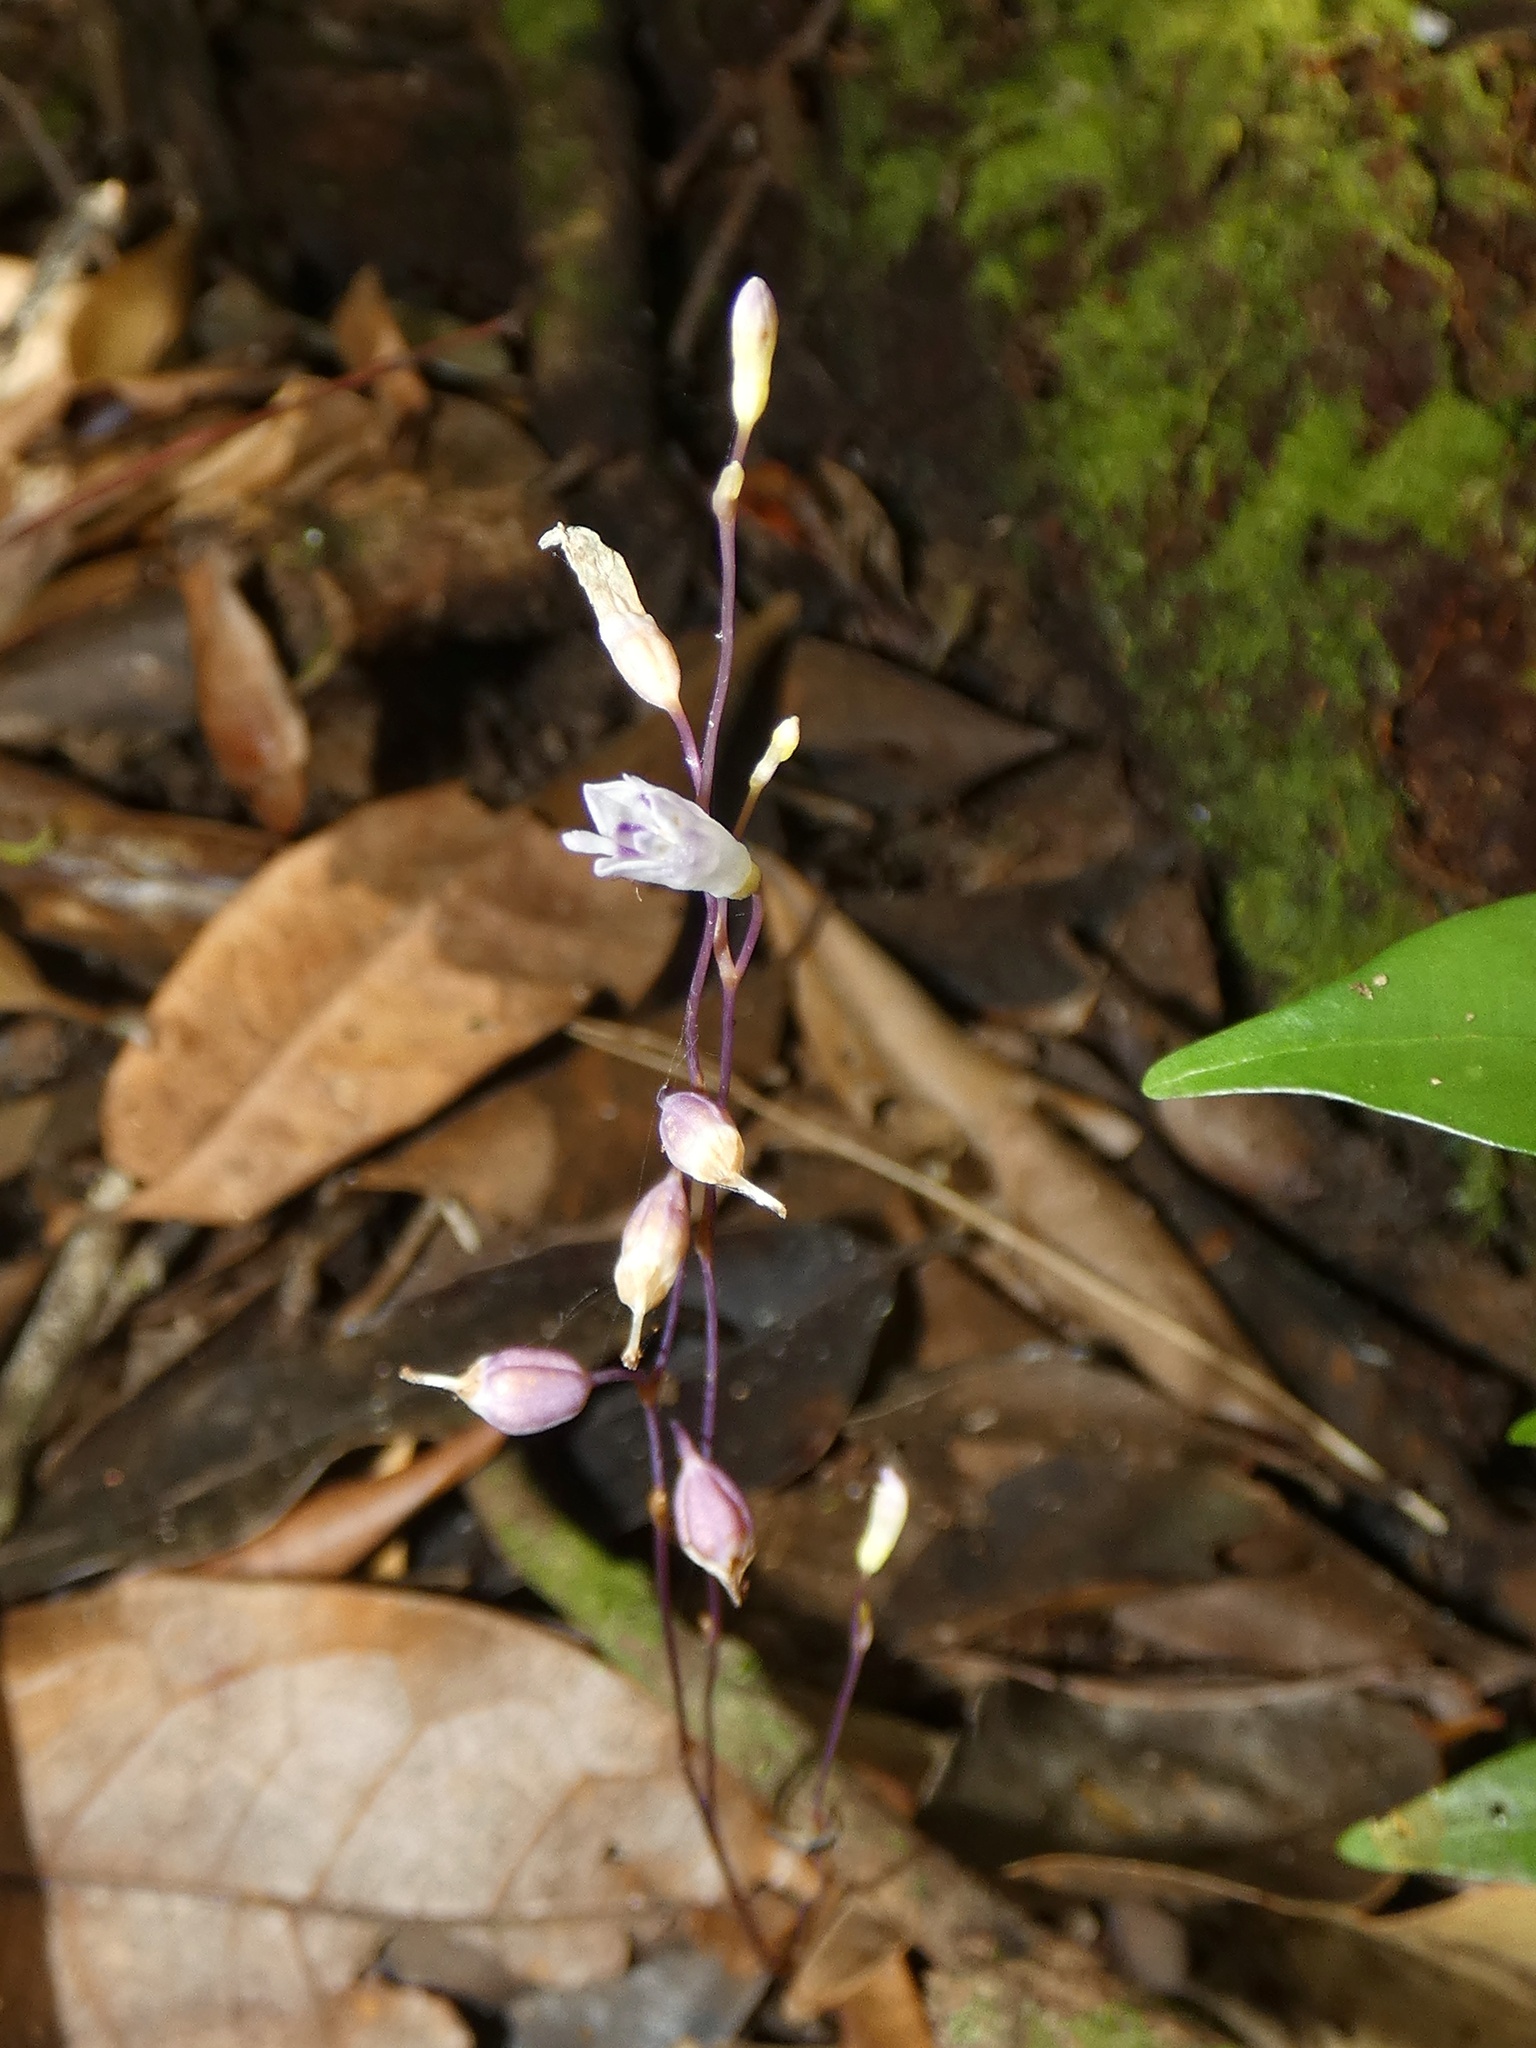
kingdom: Plantae
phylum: Tracheophyta
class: Liliopsida
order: Dioscoreales
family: Burmanniaceae
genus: Apteria
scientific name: Apteria aphylla
